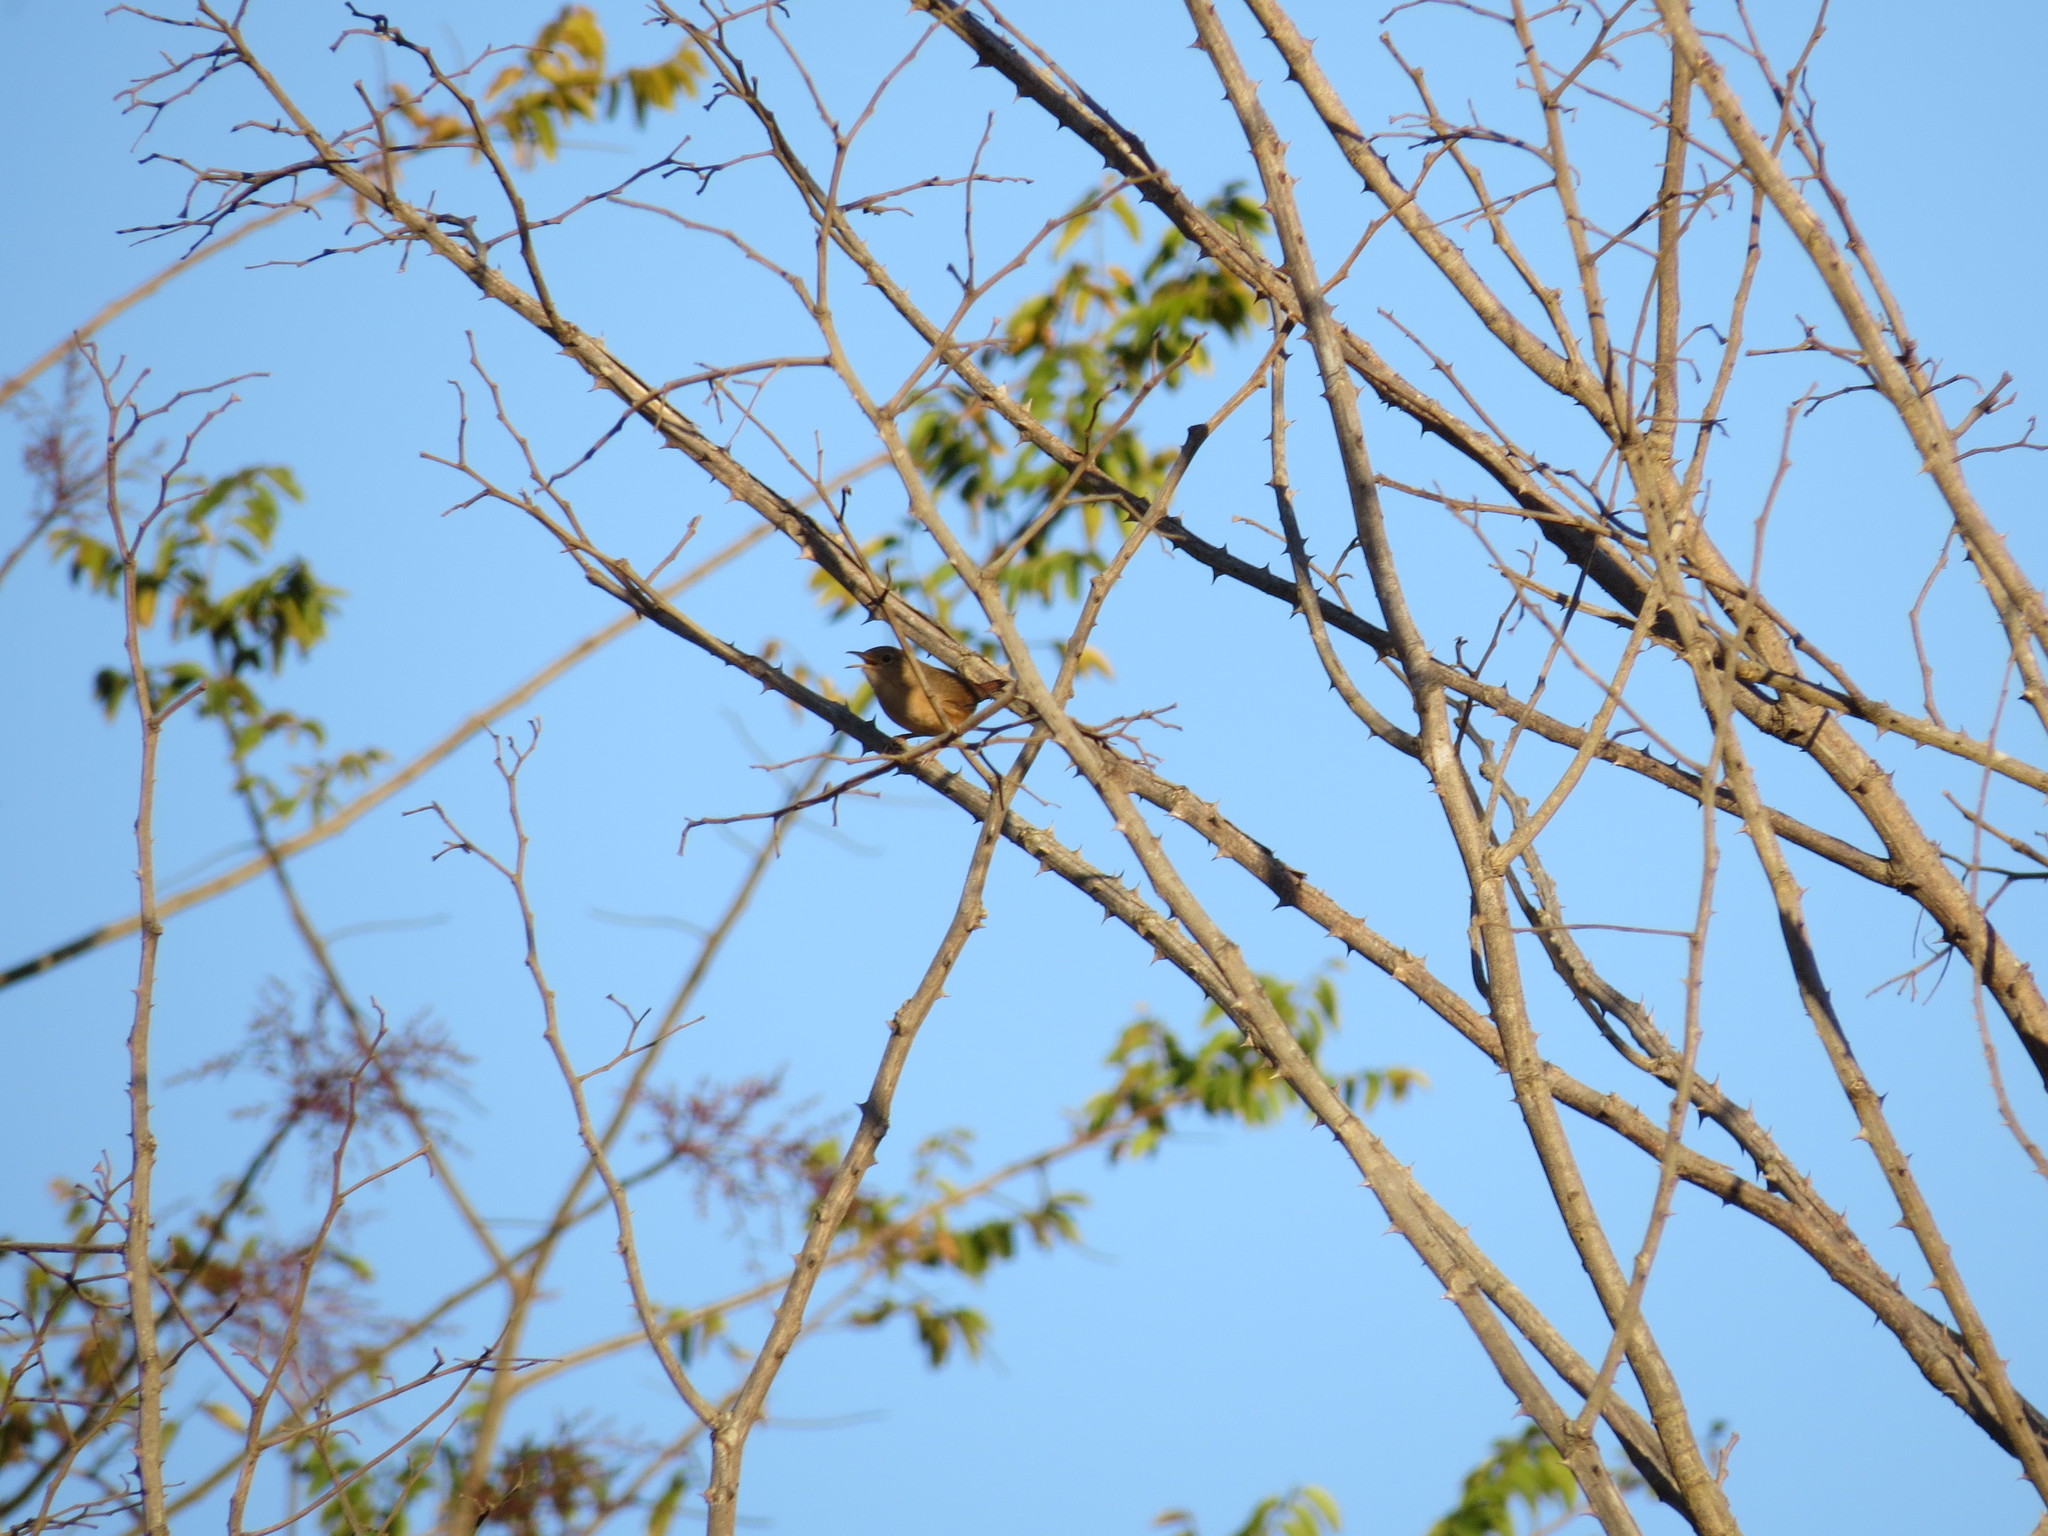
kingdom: Animalia
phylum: Chordata
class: Aves
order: Passeriformes
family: Troglodytidae
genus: Troglodytes
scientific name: Troglodytes aedon
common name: House wren
